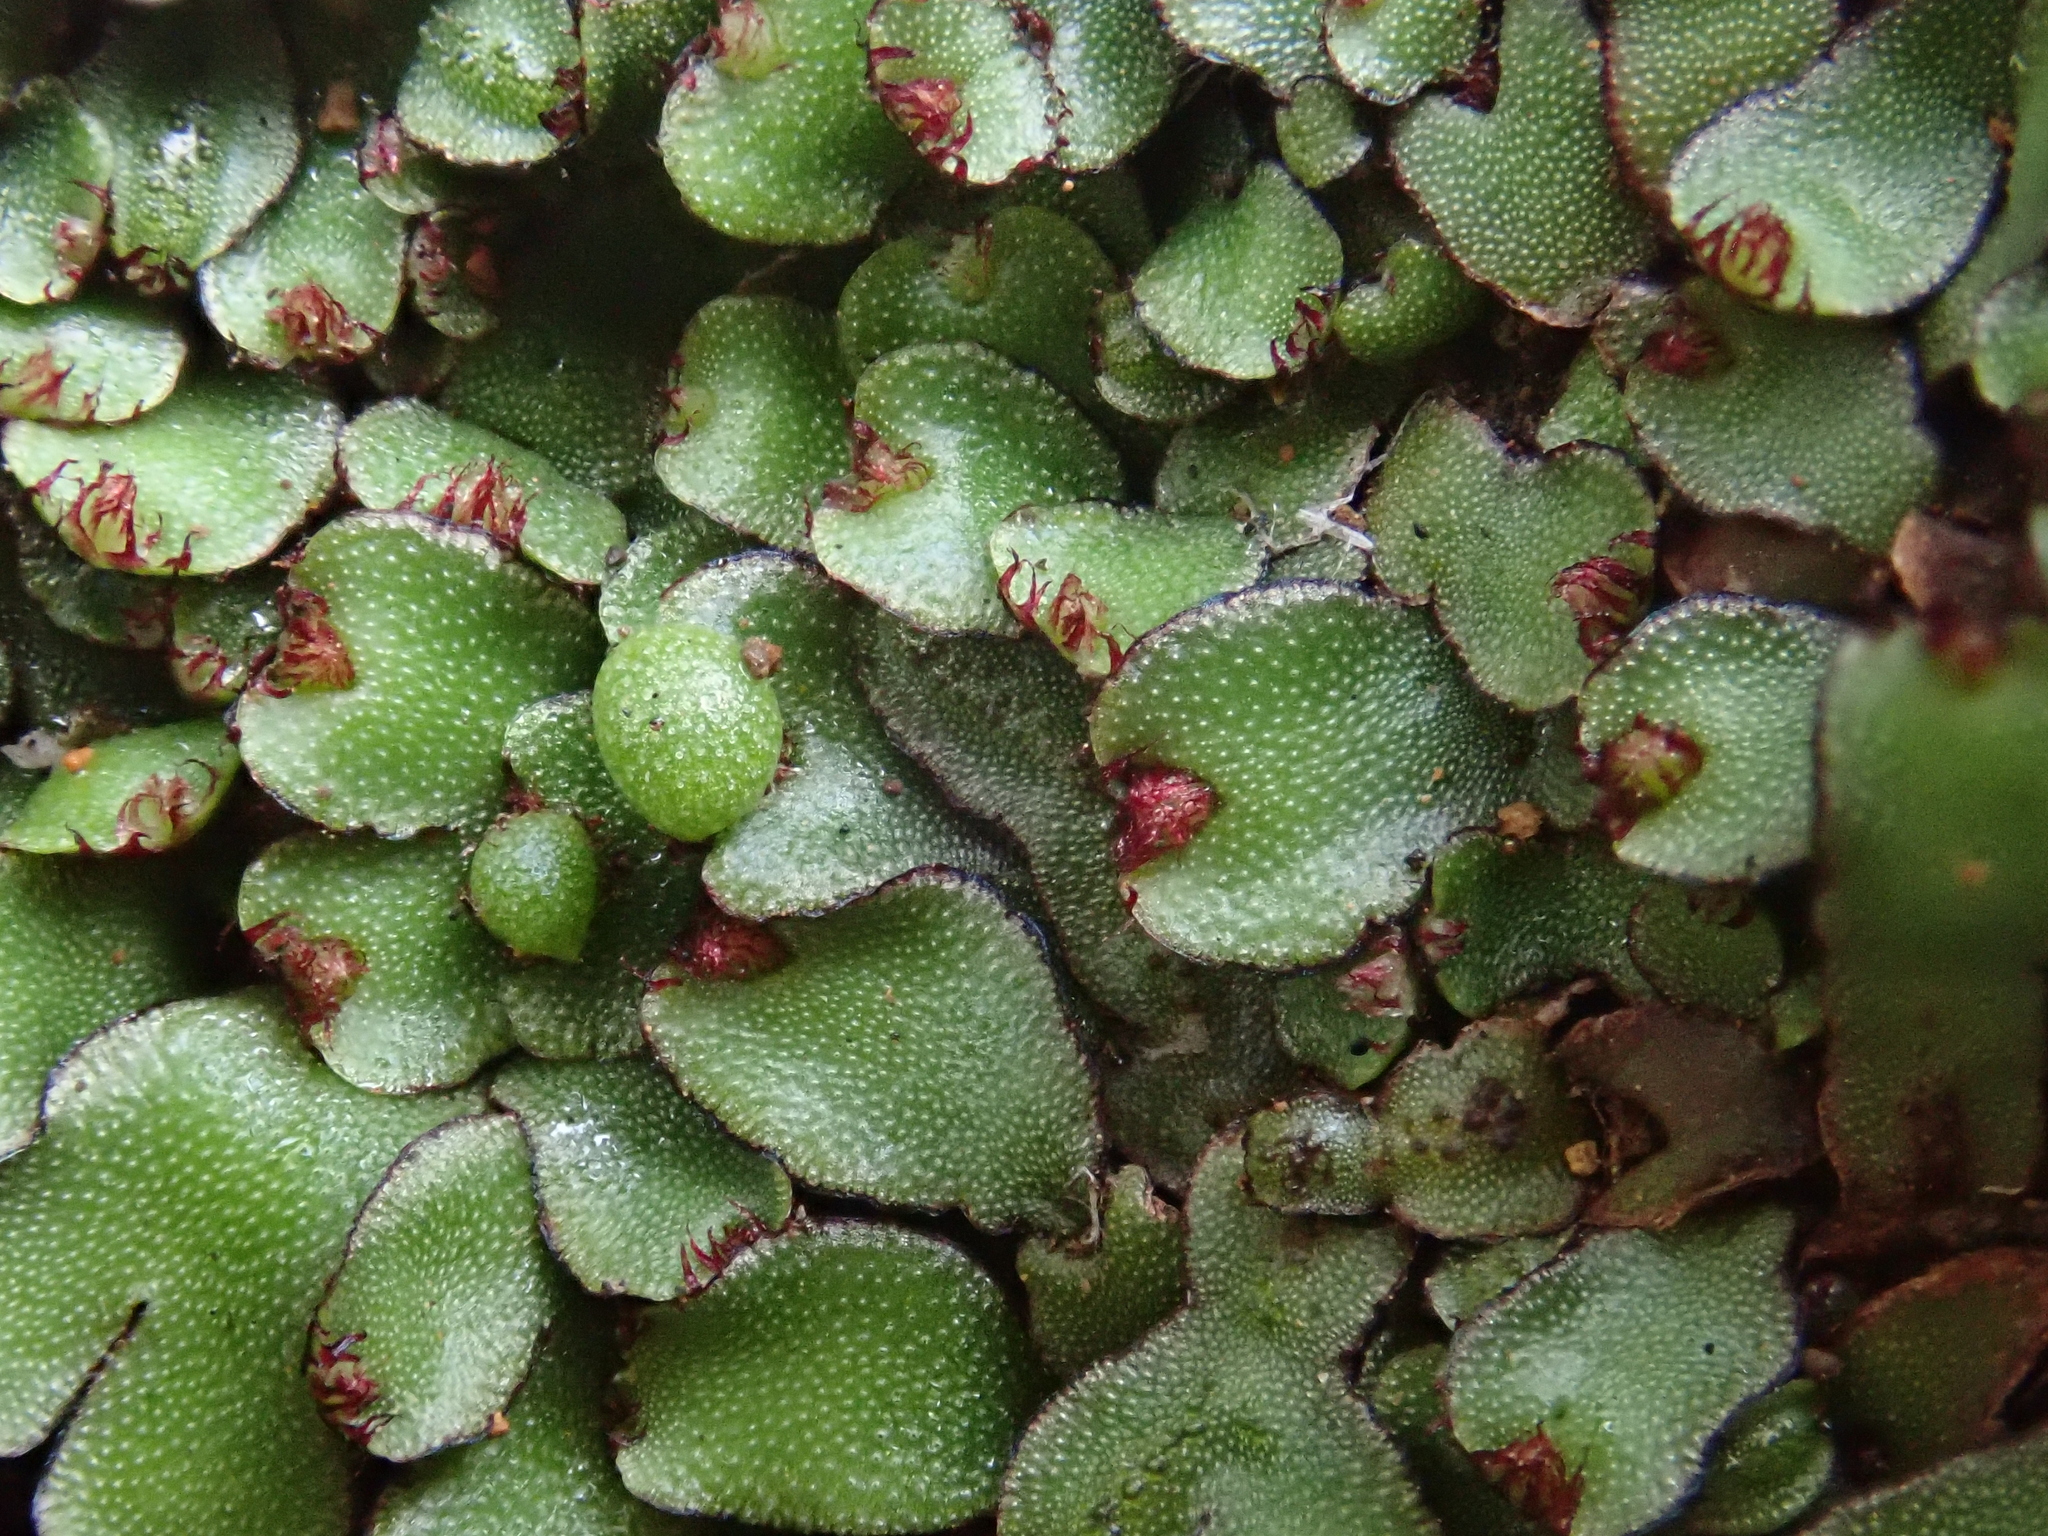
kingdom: Plantae
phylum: Marchantiophyta
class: Marchantiopsida
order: Marchantiales
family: Aytoniaceae
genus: Mannia
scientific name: Mannia androgyna
